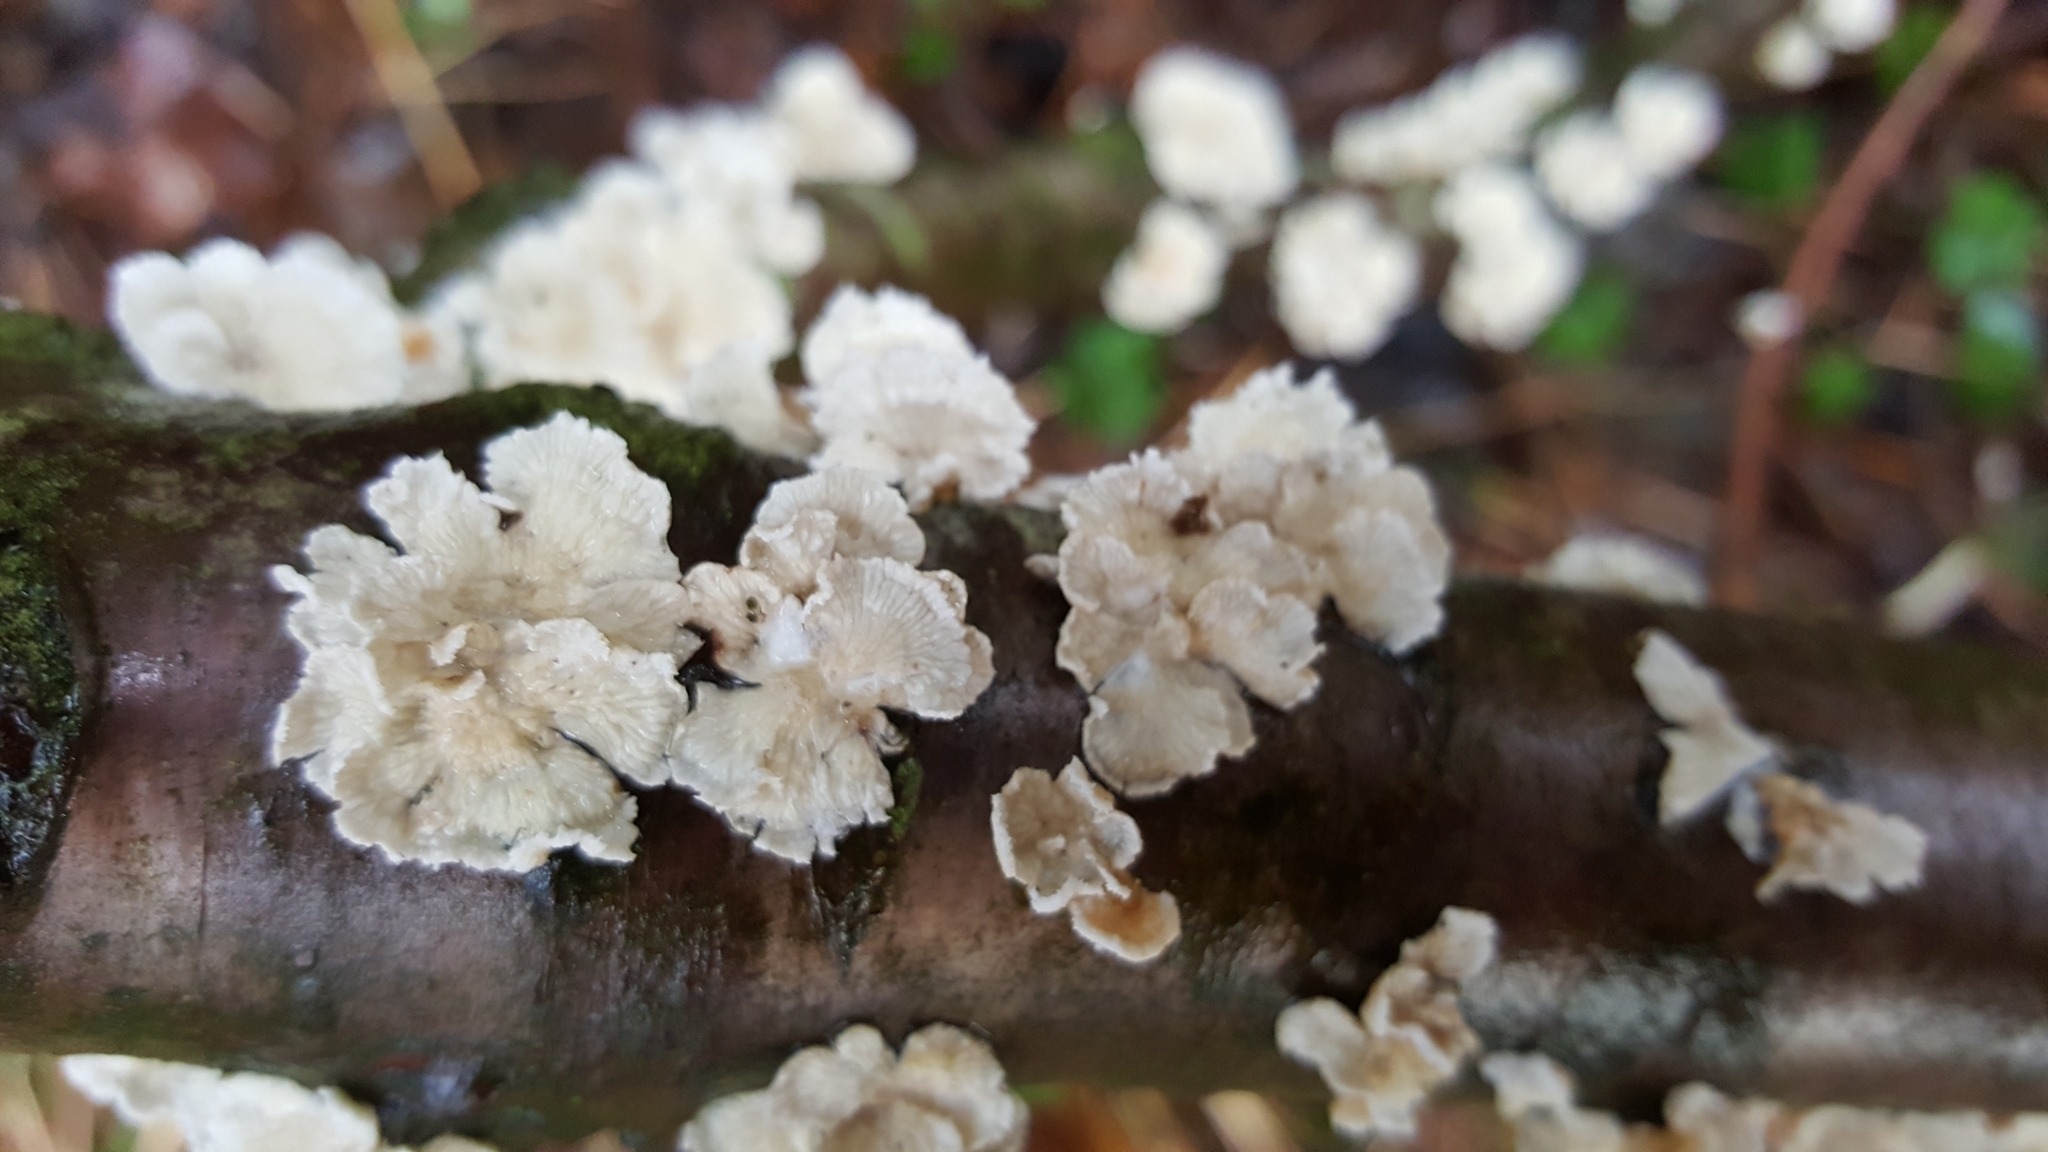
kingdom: Fungi
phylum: Basidiomycota
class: Agaricomycetes
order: Amylocorticiales
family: Amylocorticiaceae
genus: Plicaturopsis
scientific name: Plicaturopsis crispa
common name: Crimped gill
